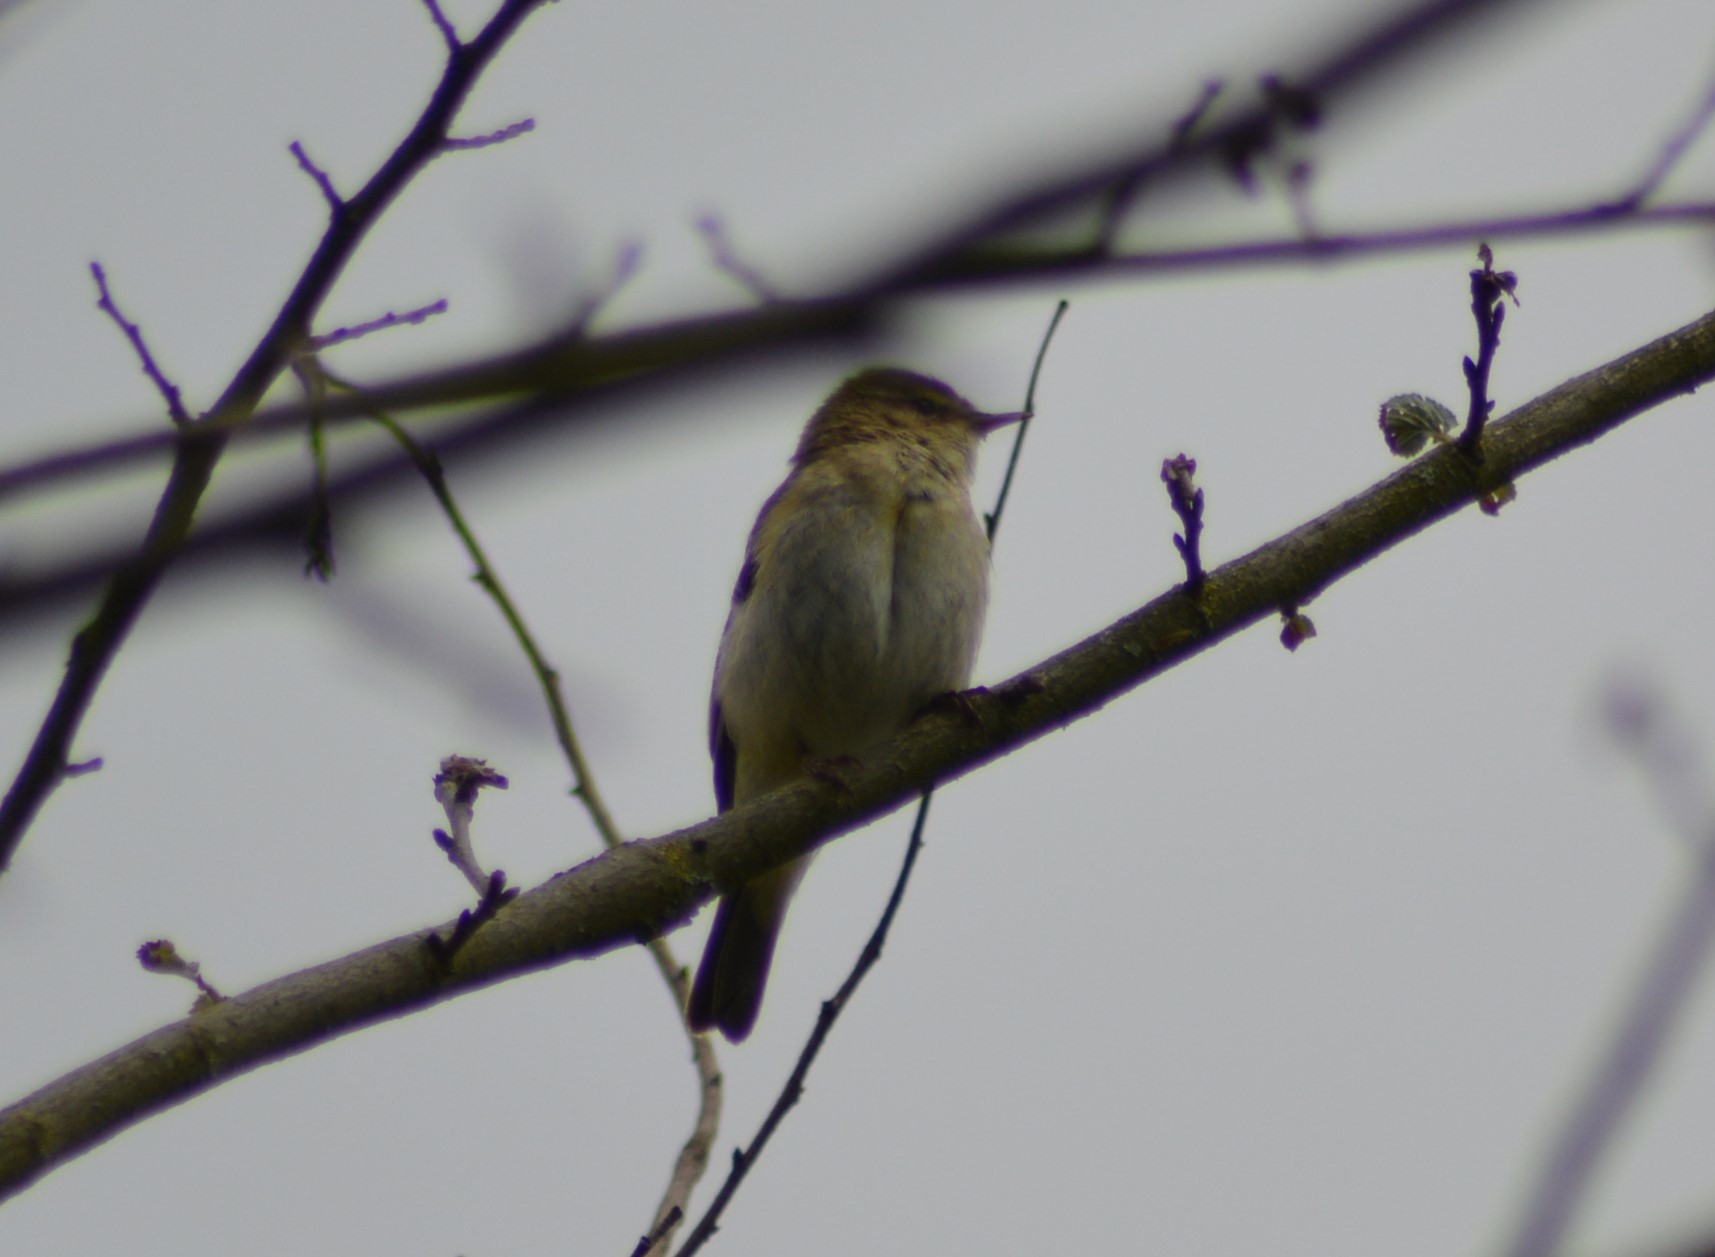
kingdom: Animalia
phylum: Chordata
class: Aves
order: Passeriformes
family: Phylloscopidae
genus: Phylloscopus
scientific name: Phylloscopus collybita
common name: Common chiffchaff
